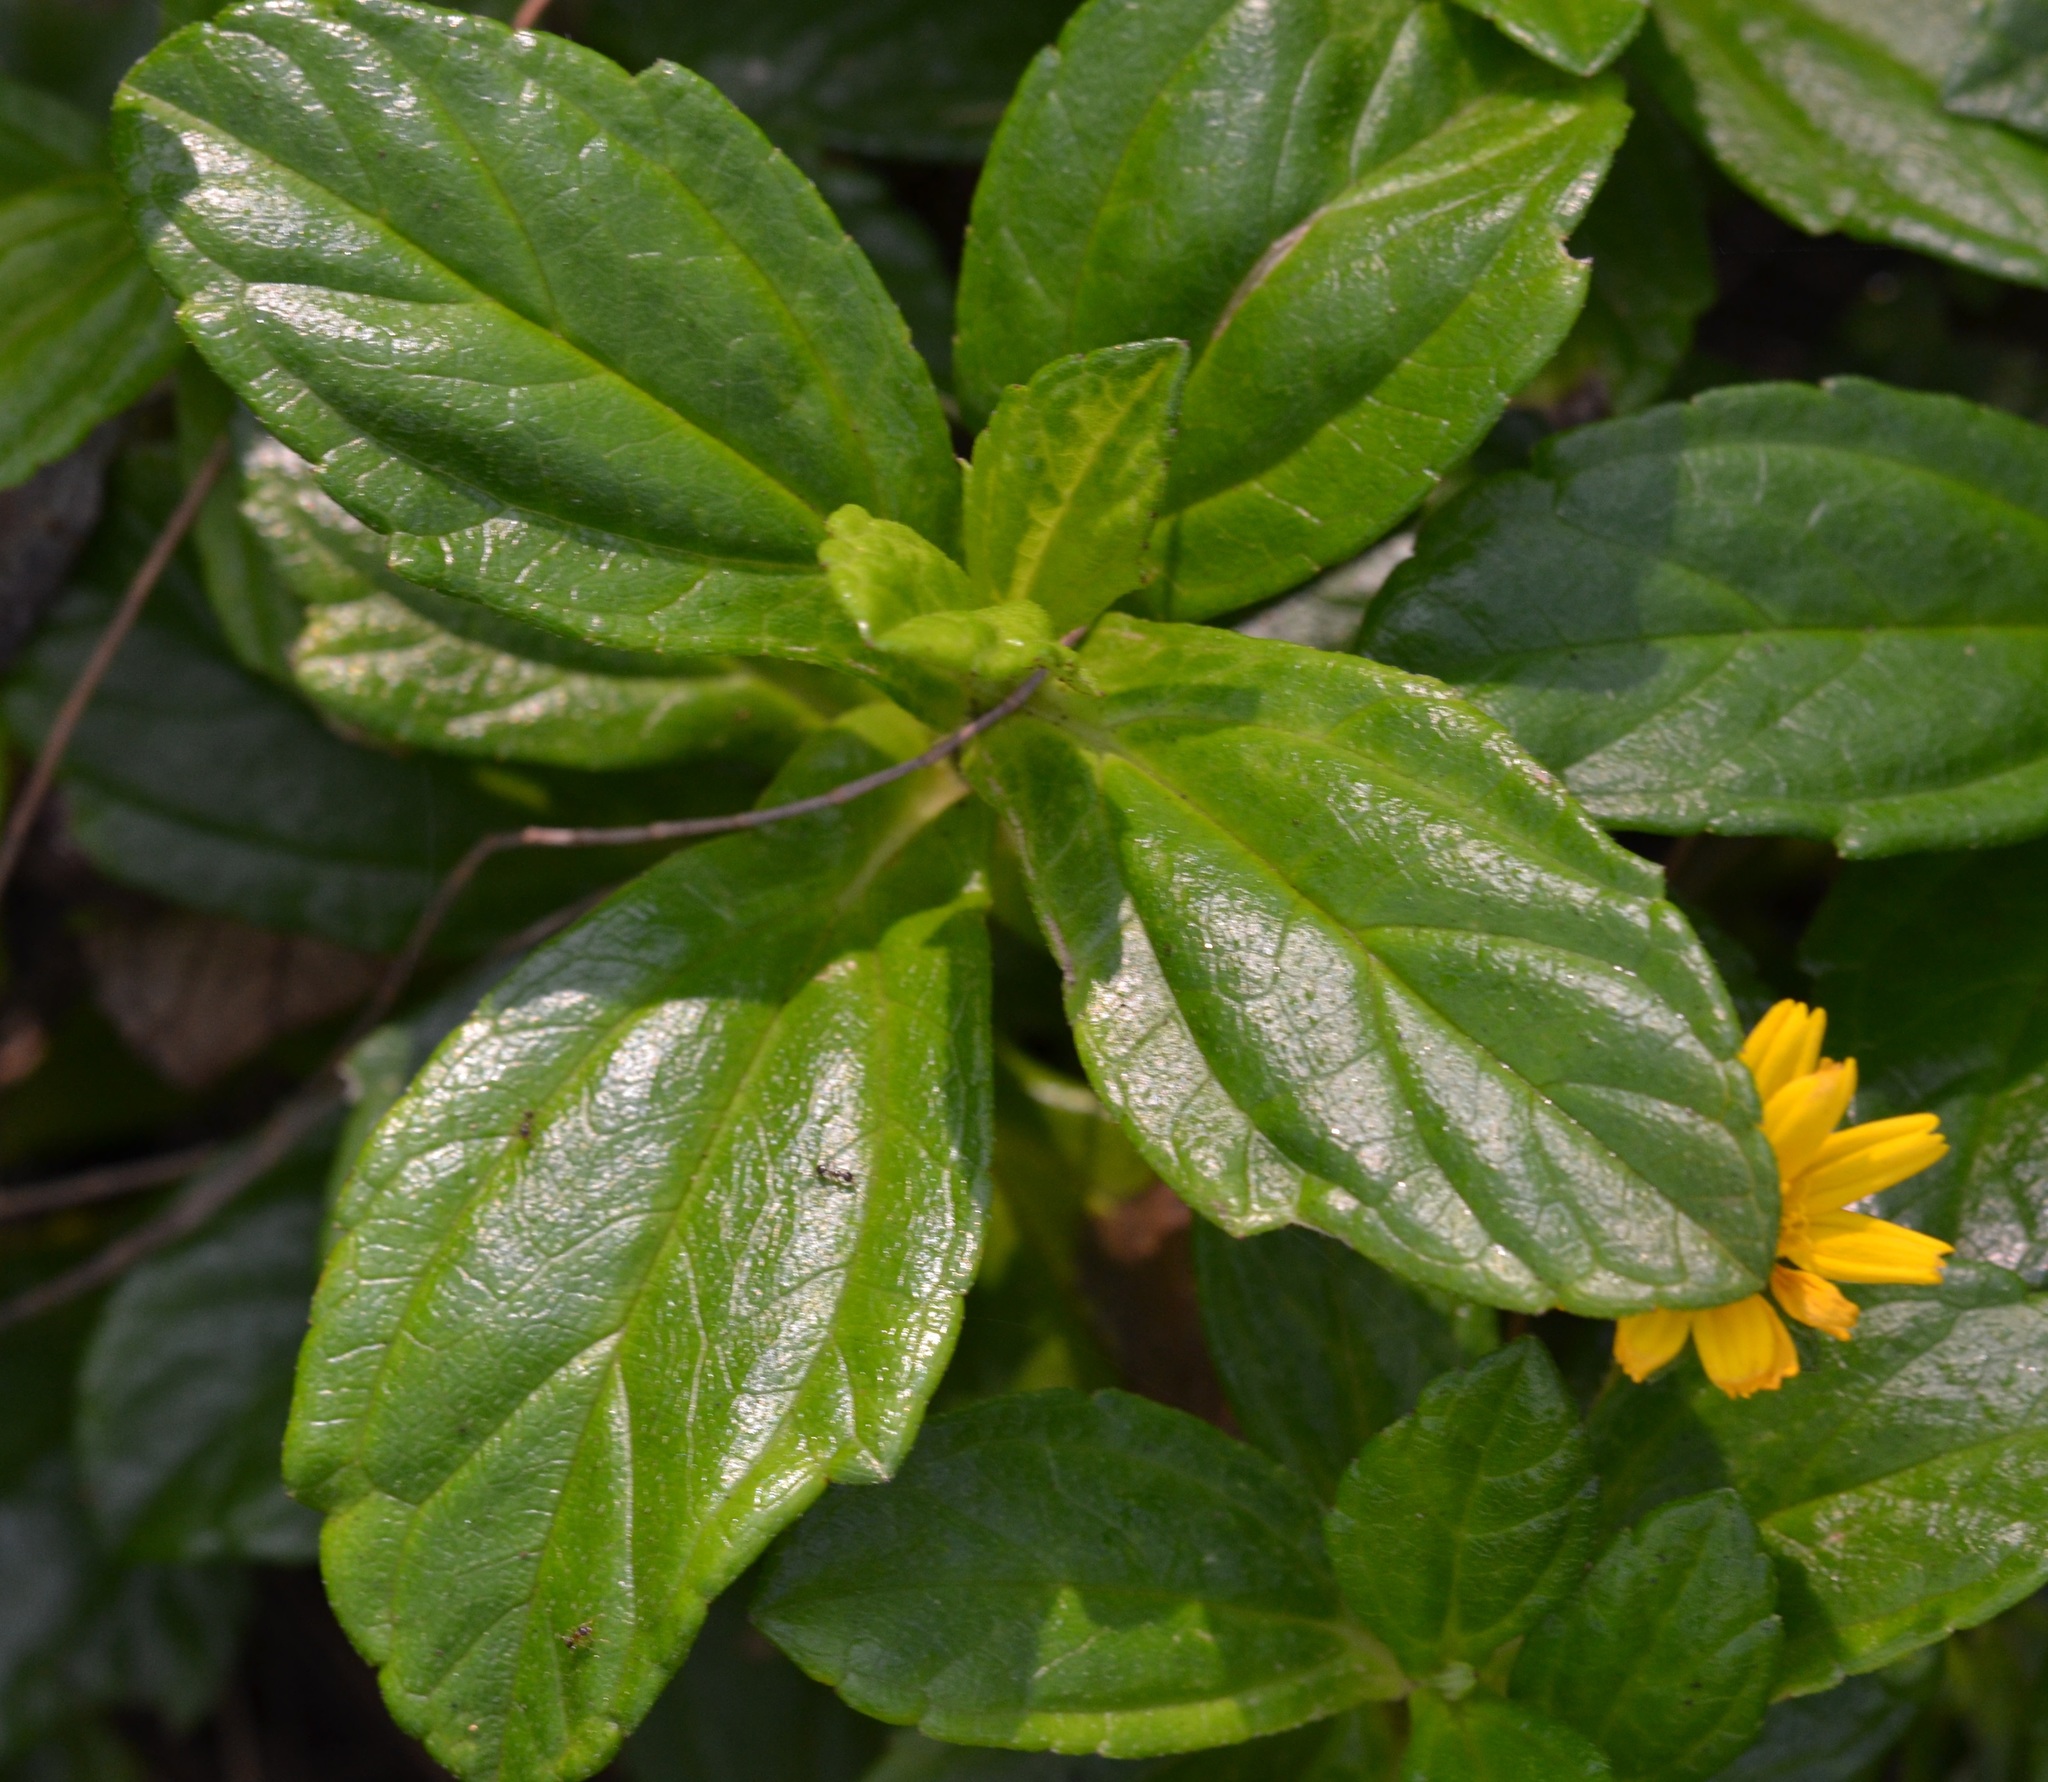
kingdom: Plantae
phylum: Tracheophyta
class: Magnoliopsida
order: Asterales
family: Asteraceae
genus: Sphagneticola
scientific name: Sphagneticola trilobata
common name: Bay biscayne creeping-oxeye
